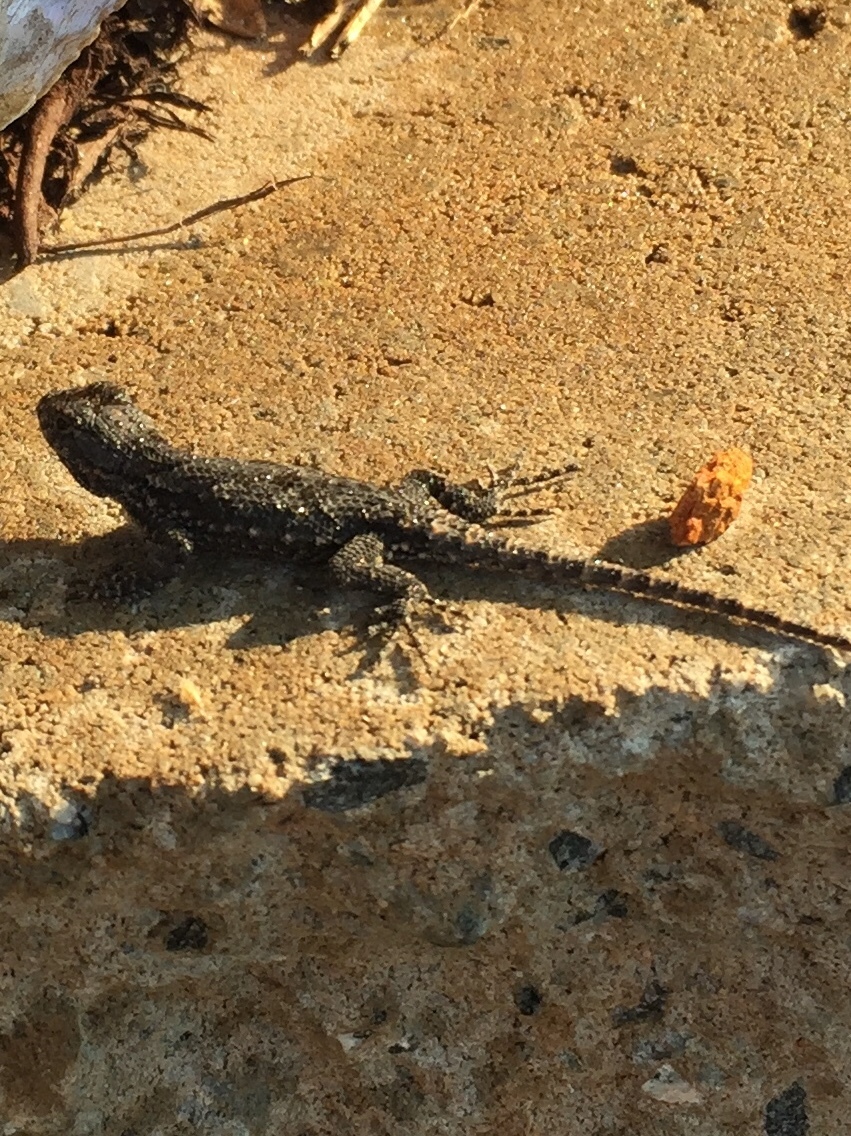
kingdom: Animalia
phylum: Chordata
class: Squamata
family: Phrynosomatidae
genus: Sceloporus
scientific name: Sceloporus undulatus
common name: Eastern fence lizard
